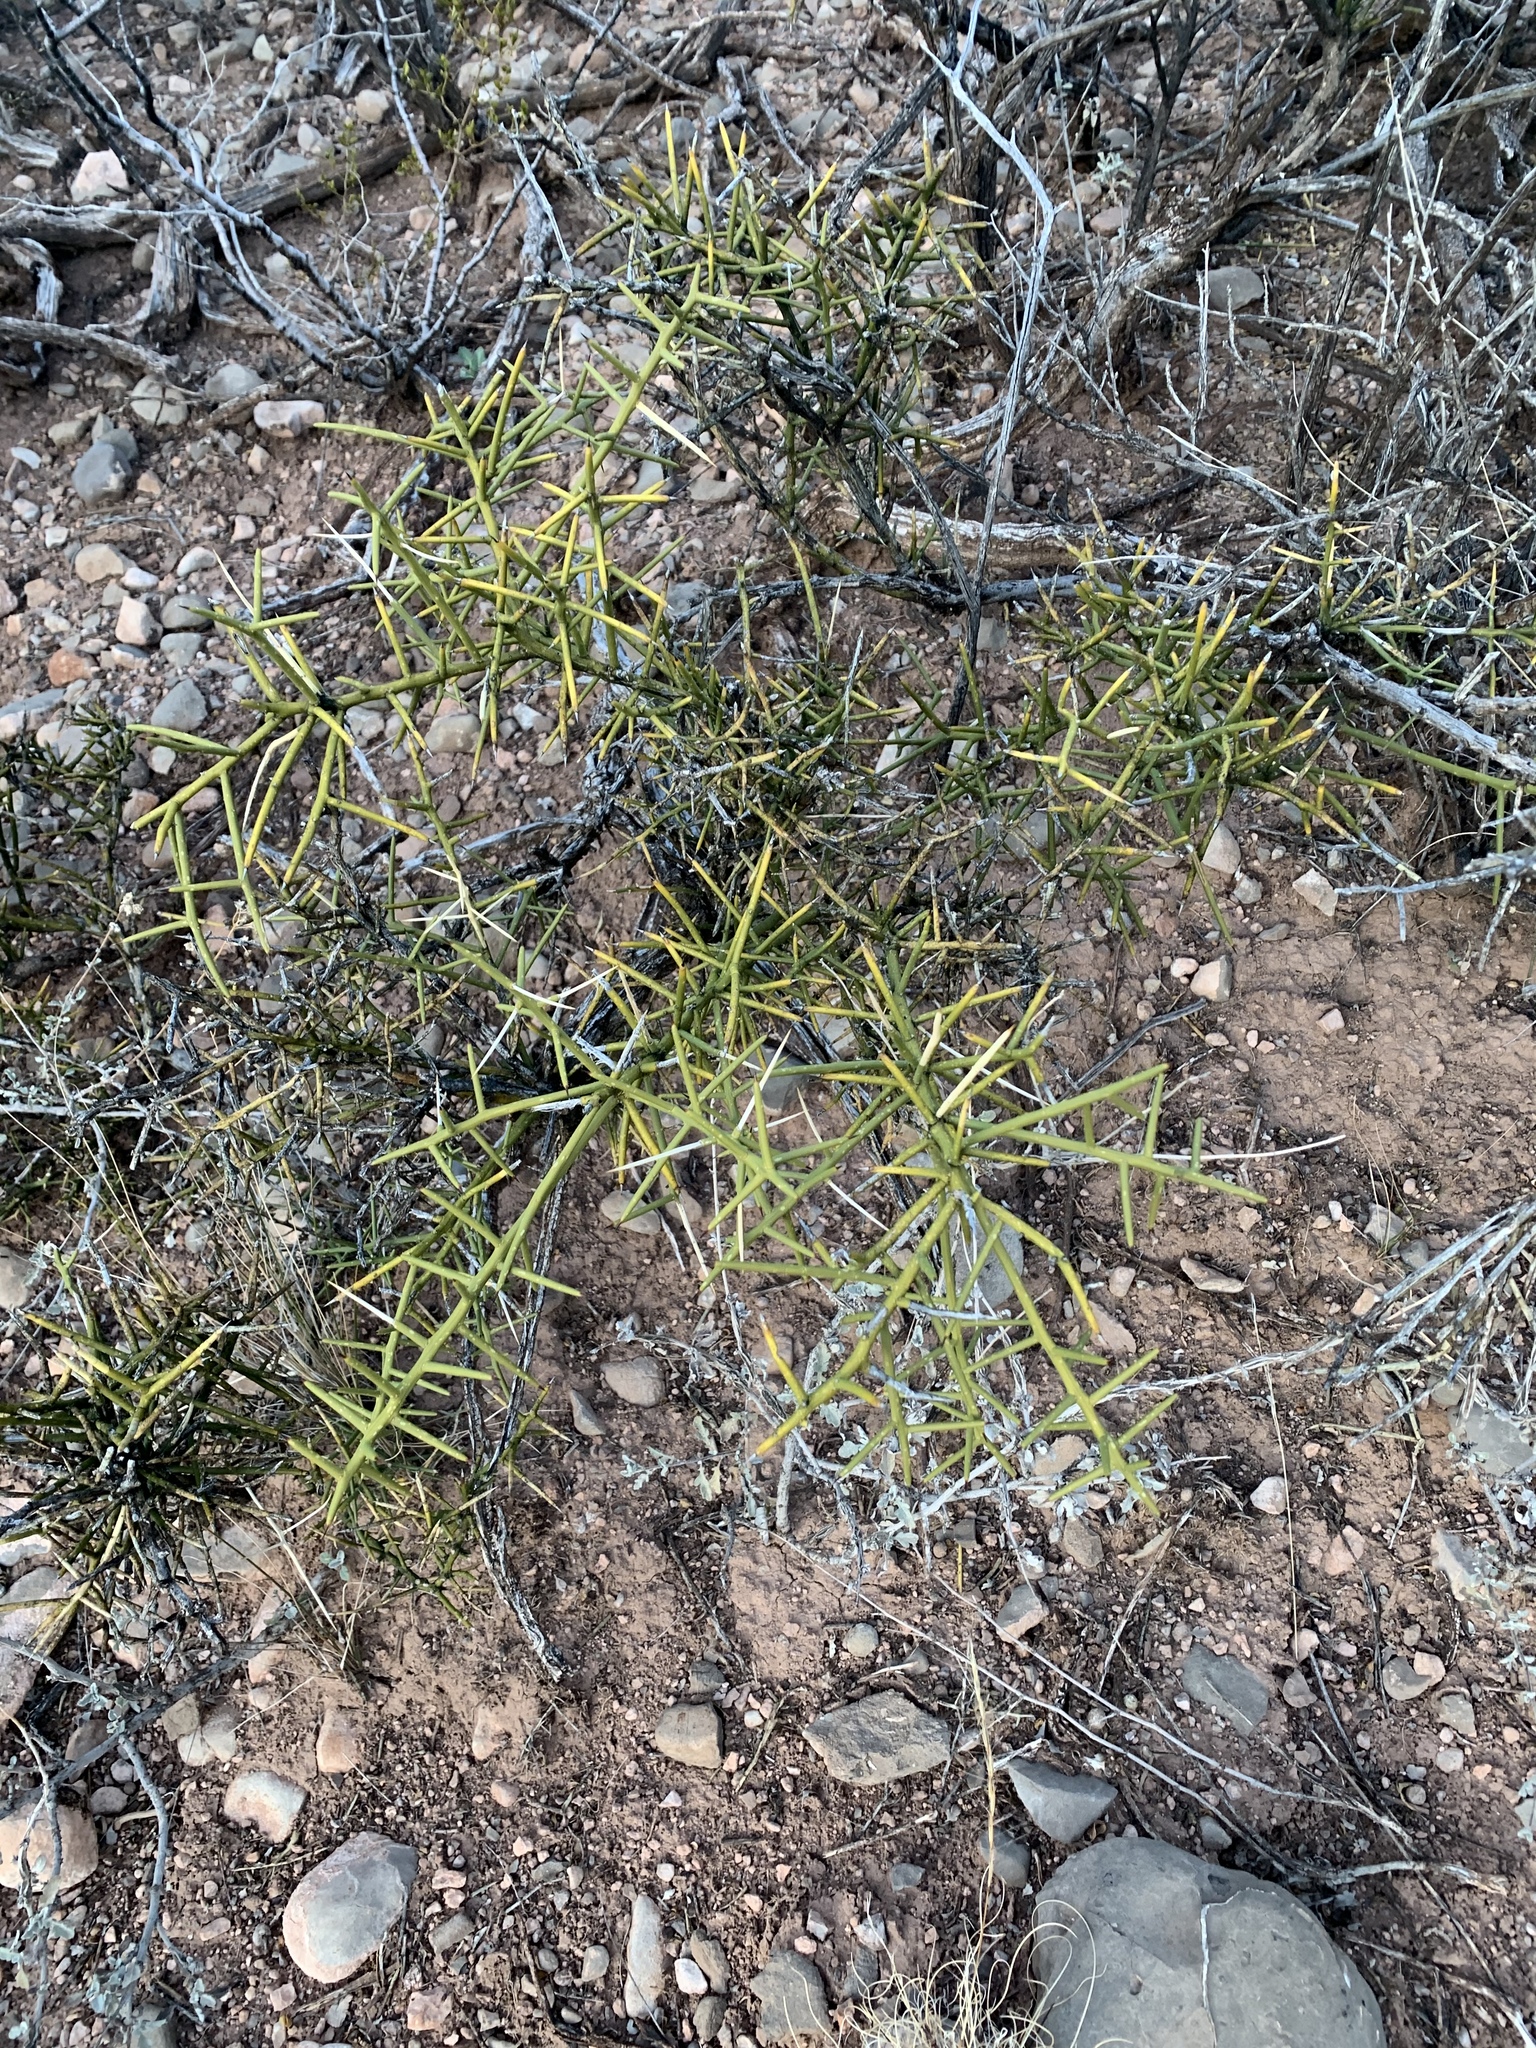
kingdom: Plantae
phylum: Tracheophyta
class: Magnoliopsida
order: Brassicales
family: Koeberliniaceae
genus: Koeberlinia
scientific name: Koeberlinia spinosa
